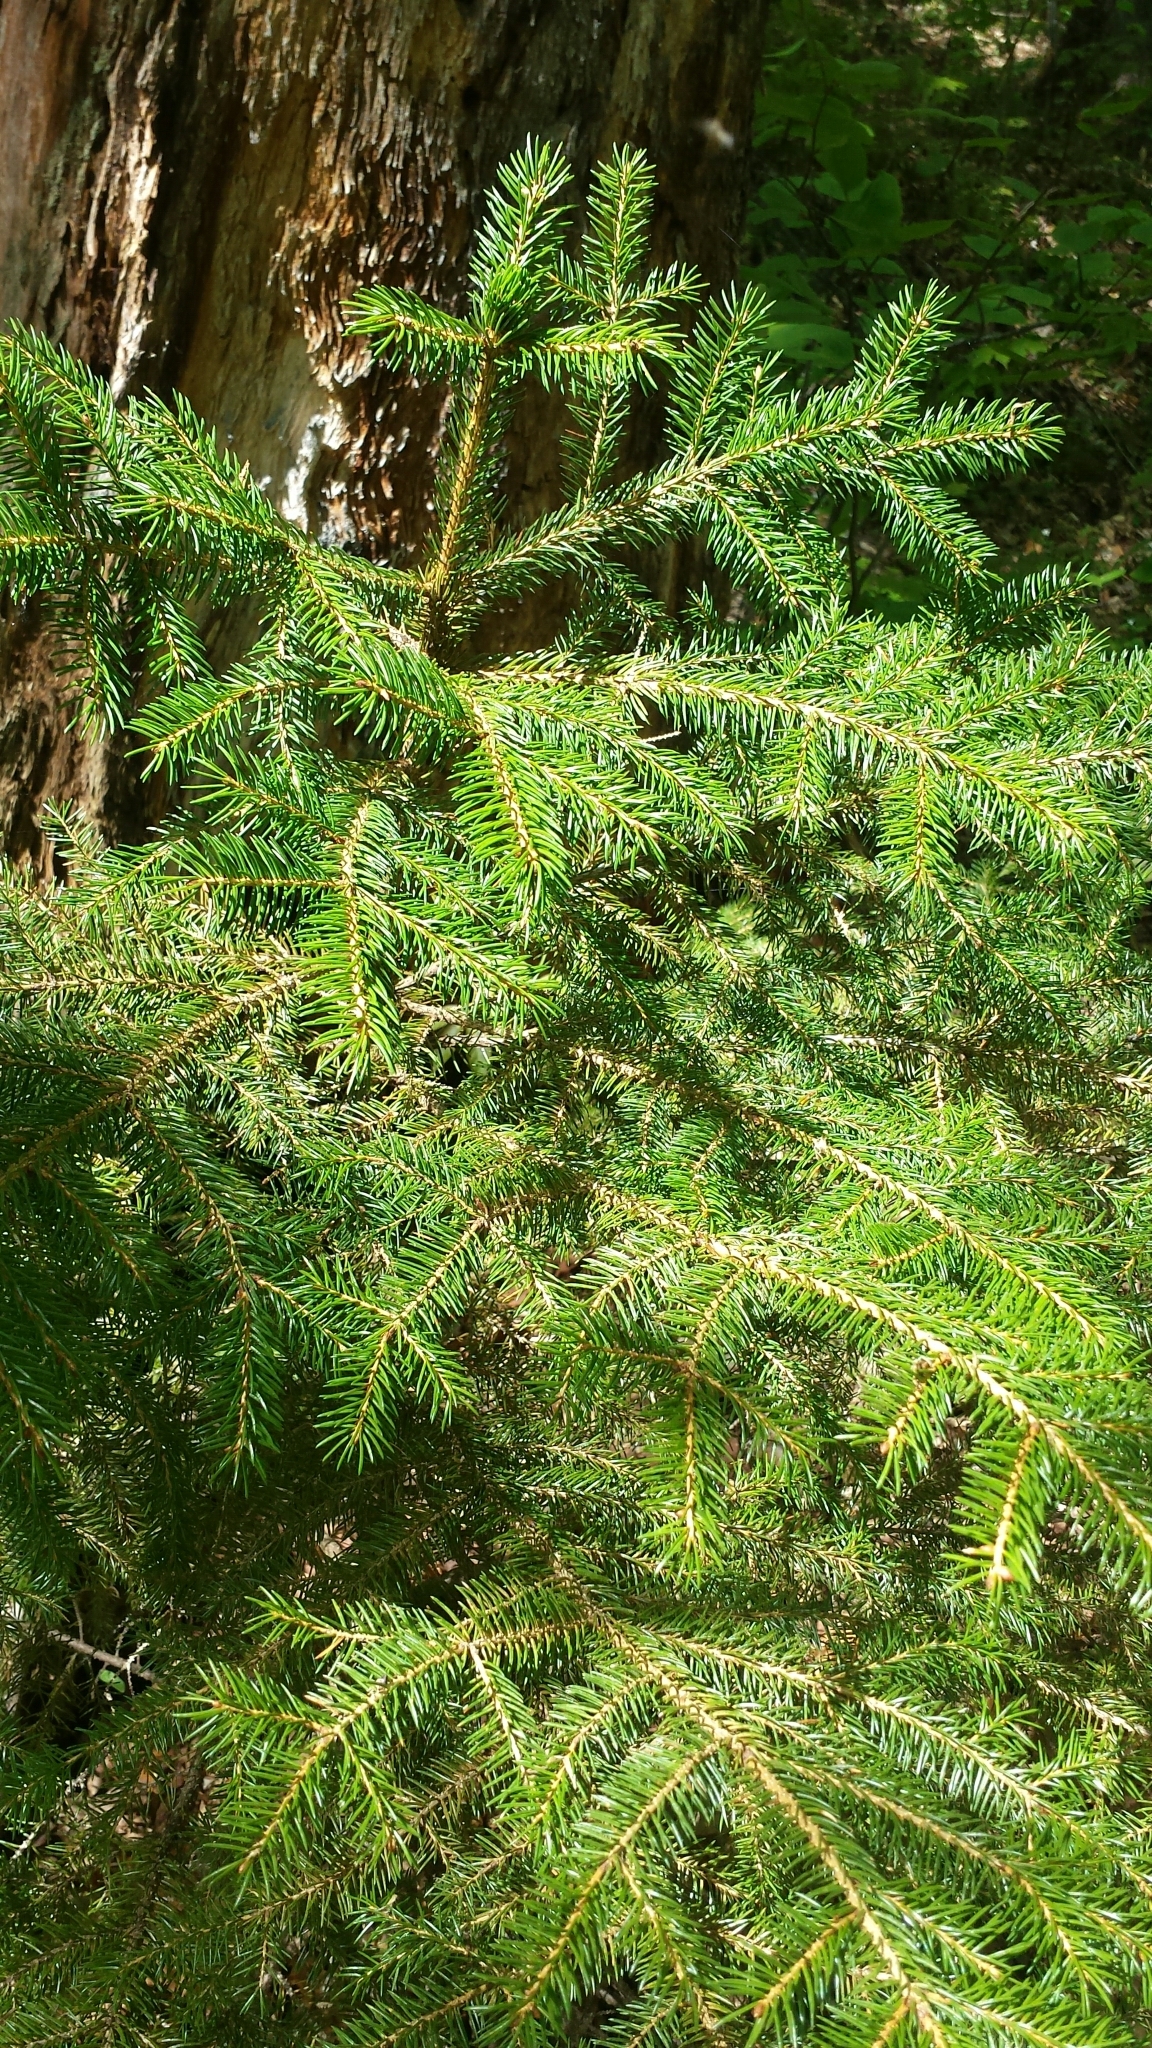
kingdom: Plantae
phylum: Tracheophyta
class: Pinopsida
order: Pinales
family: Pinaceae
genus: Picea
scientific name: Picea rubens
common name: Red spruce
